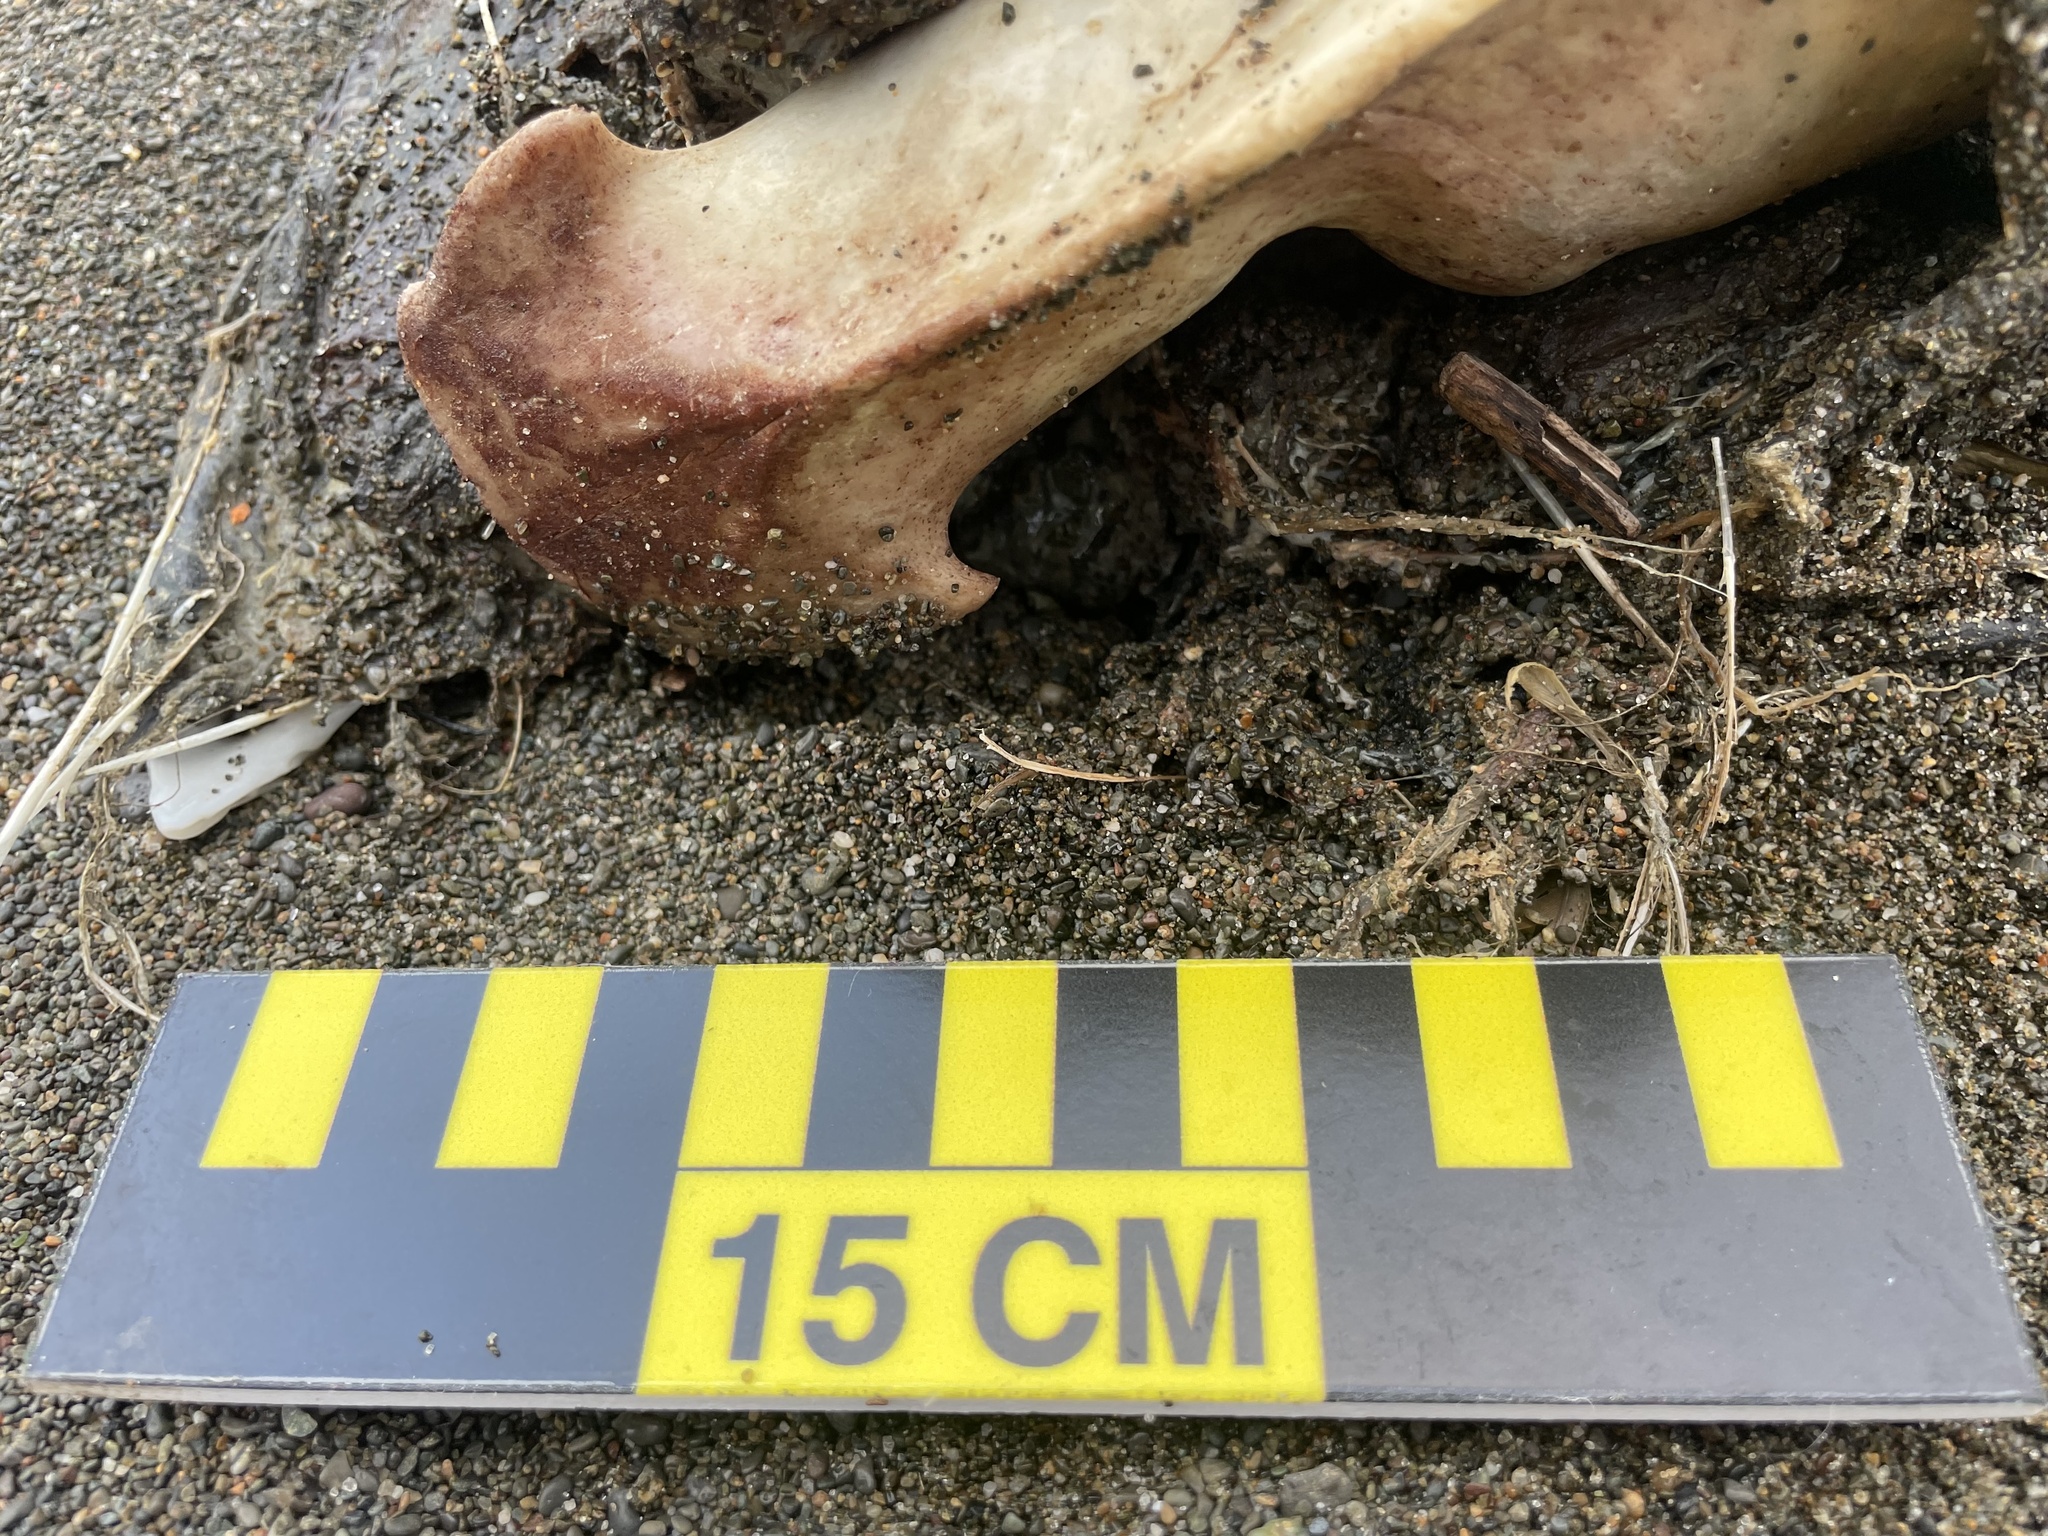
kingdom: Animalia
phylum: Chordata
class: Mammalia
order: Carnivora
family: Otariidae
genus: Zalophus
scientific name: Zalophus californianus
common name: California sea lion
